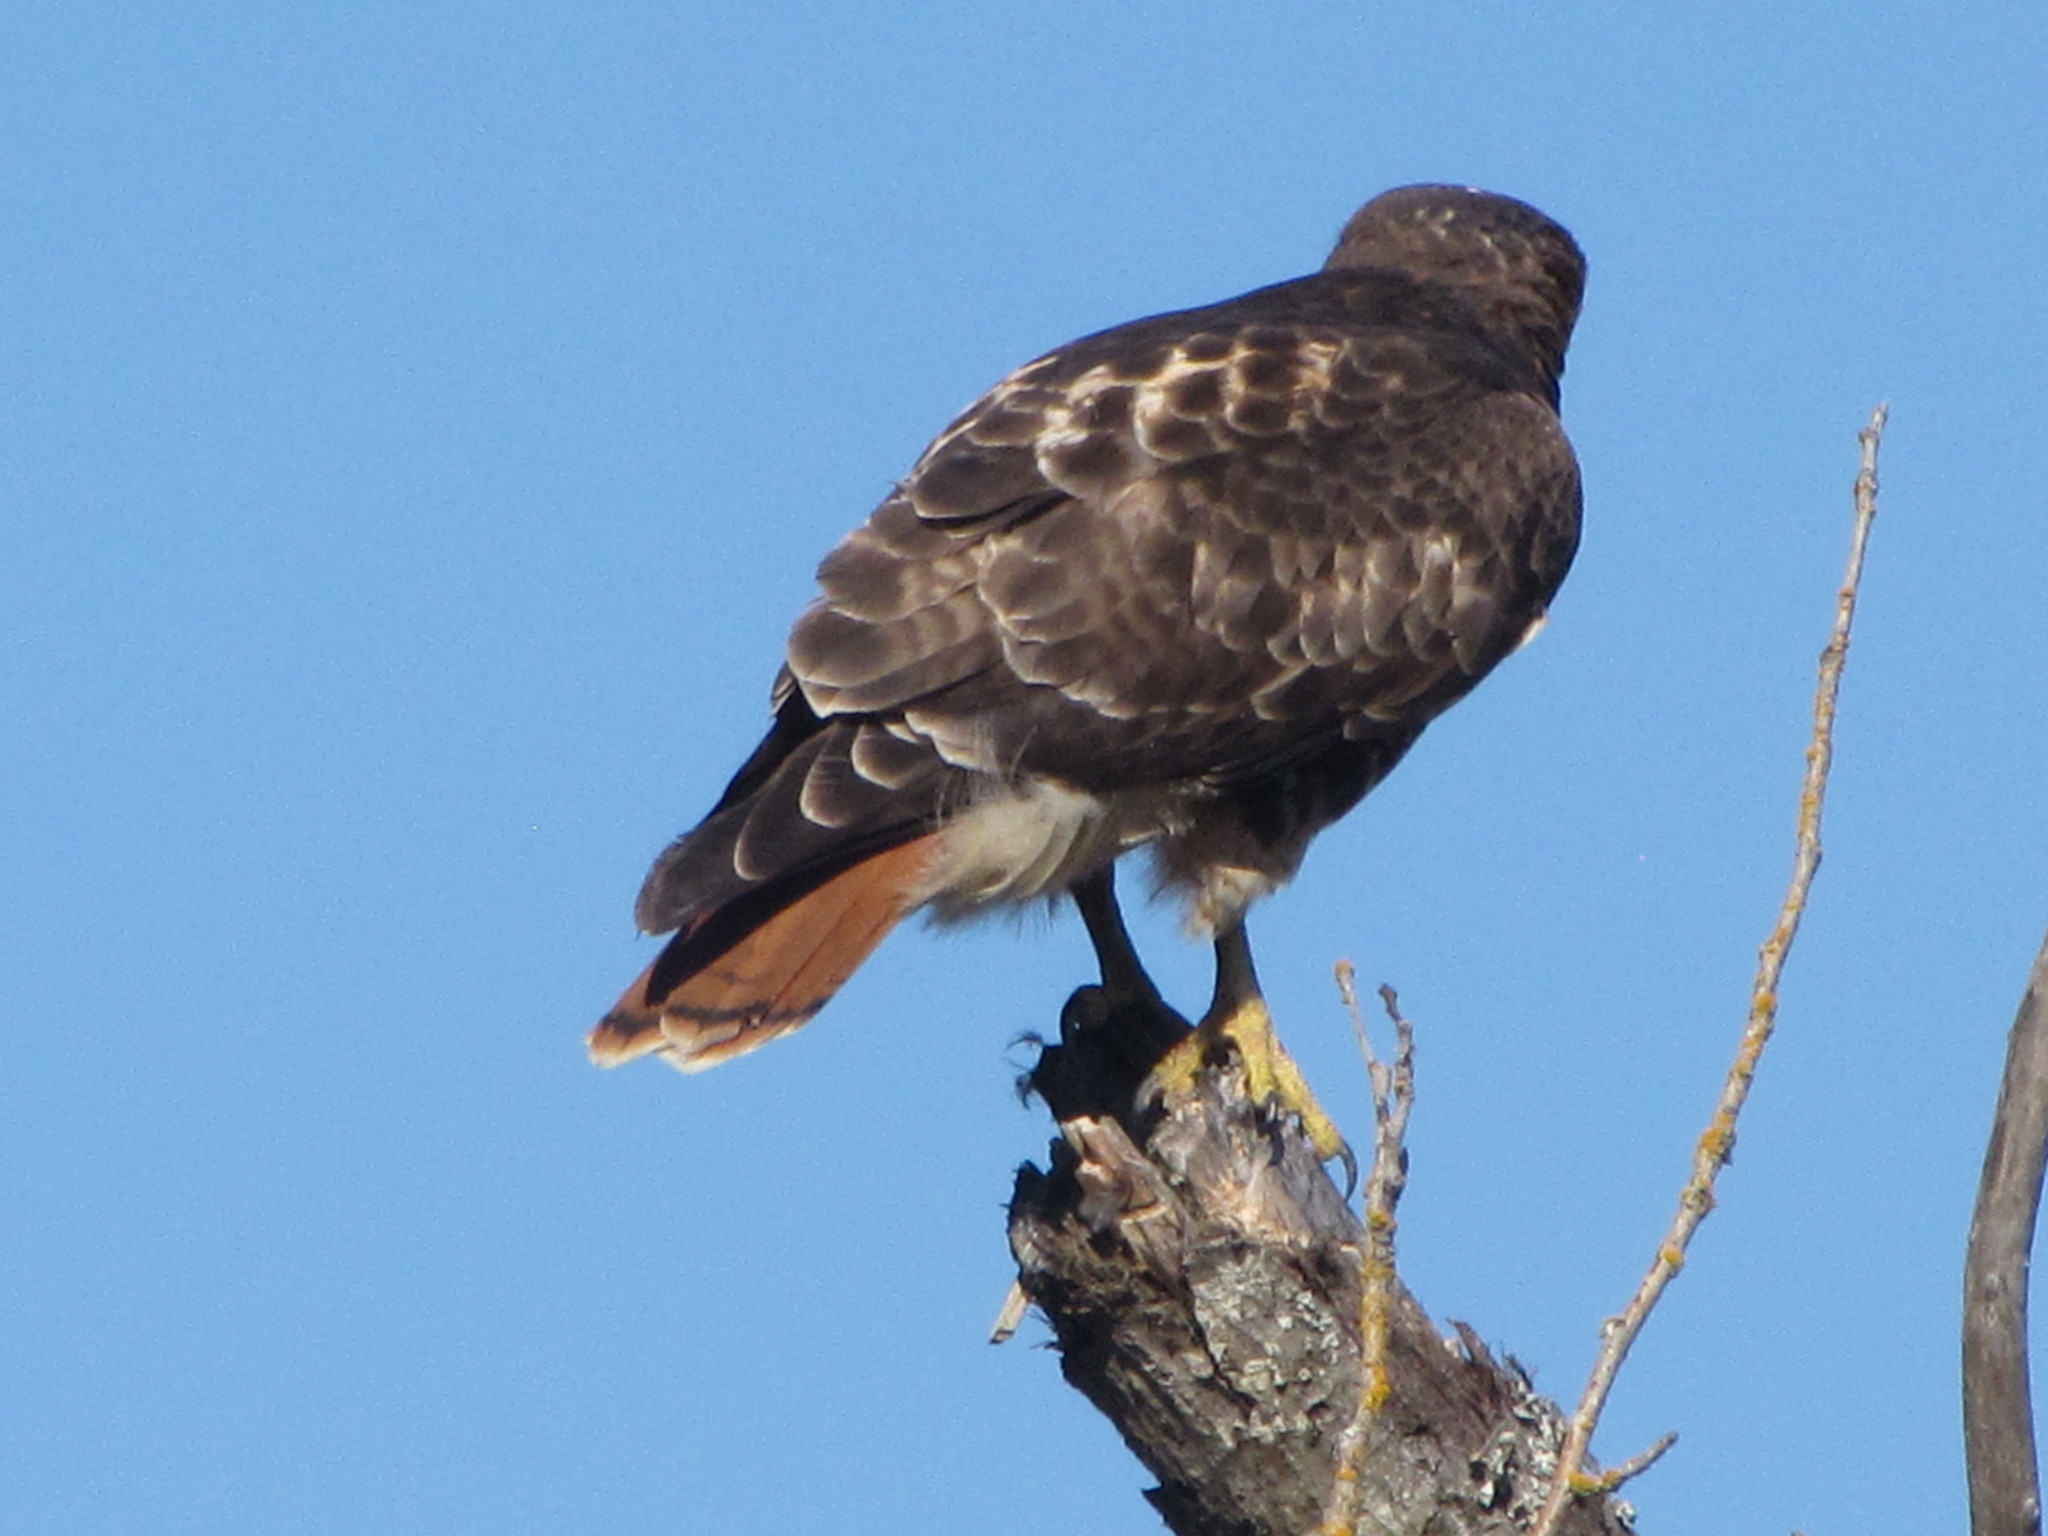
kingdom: Animalia
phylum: Chordata
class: Aves
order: Accipitriformes
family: Accipitridae
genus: Buteo
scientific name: Buteo jamaicensis
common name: Red-tailed hawk
